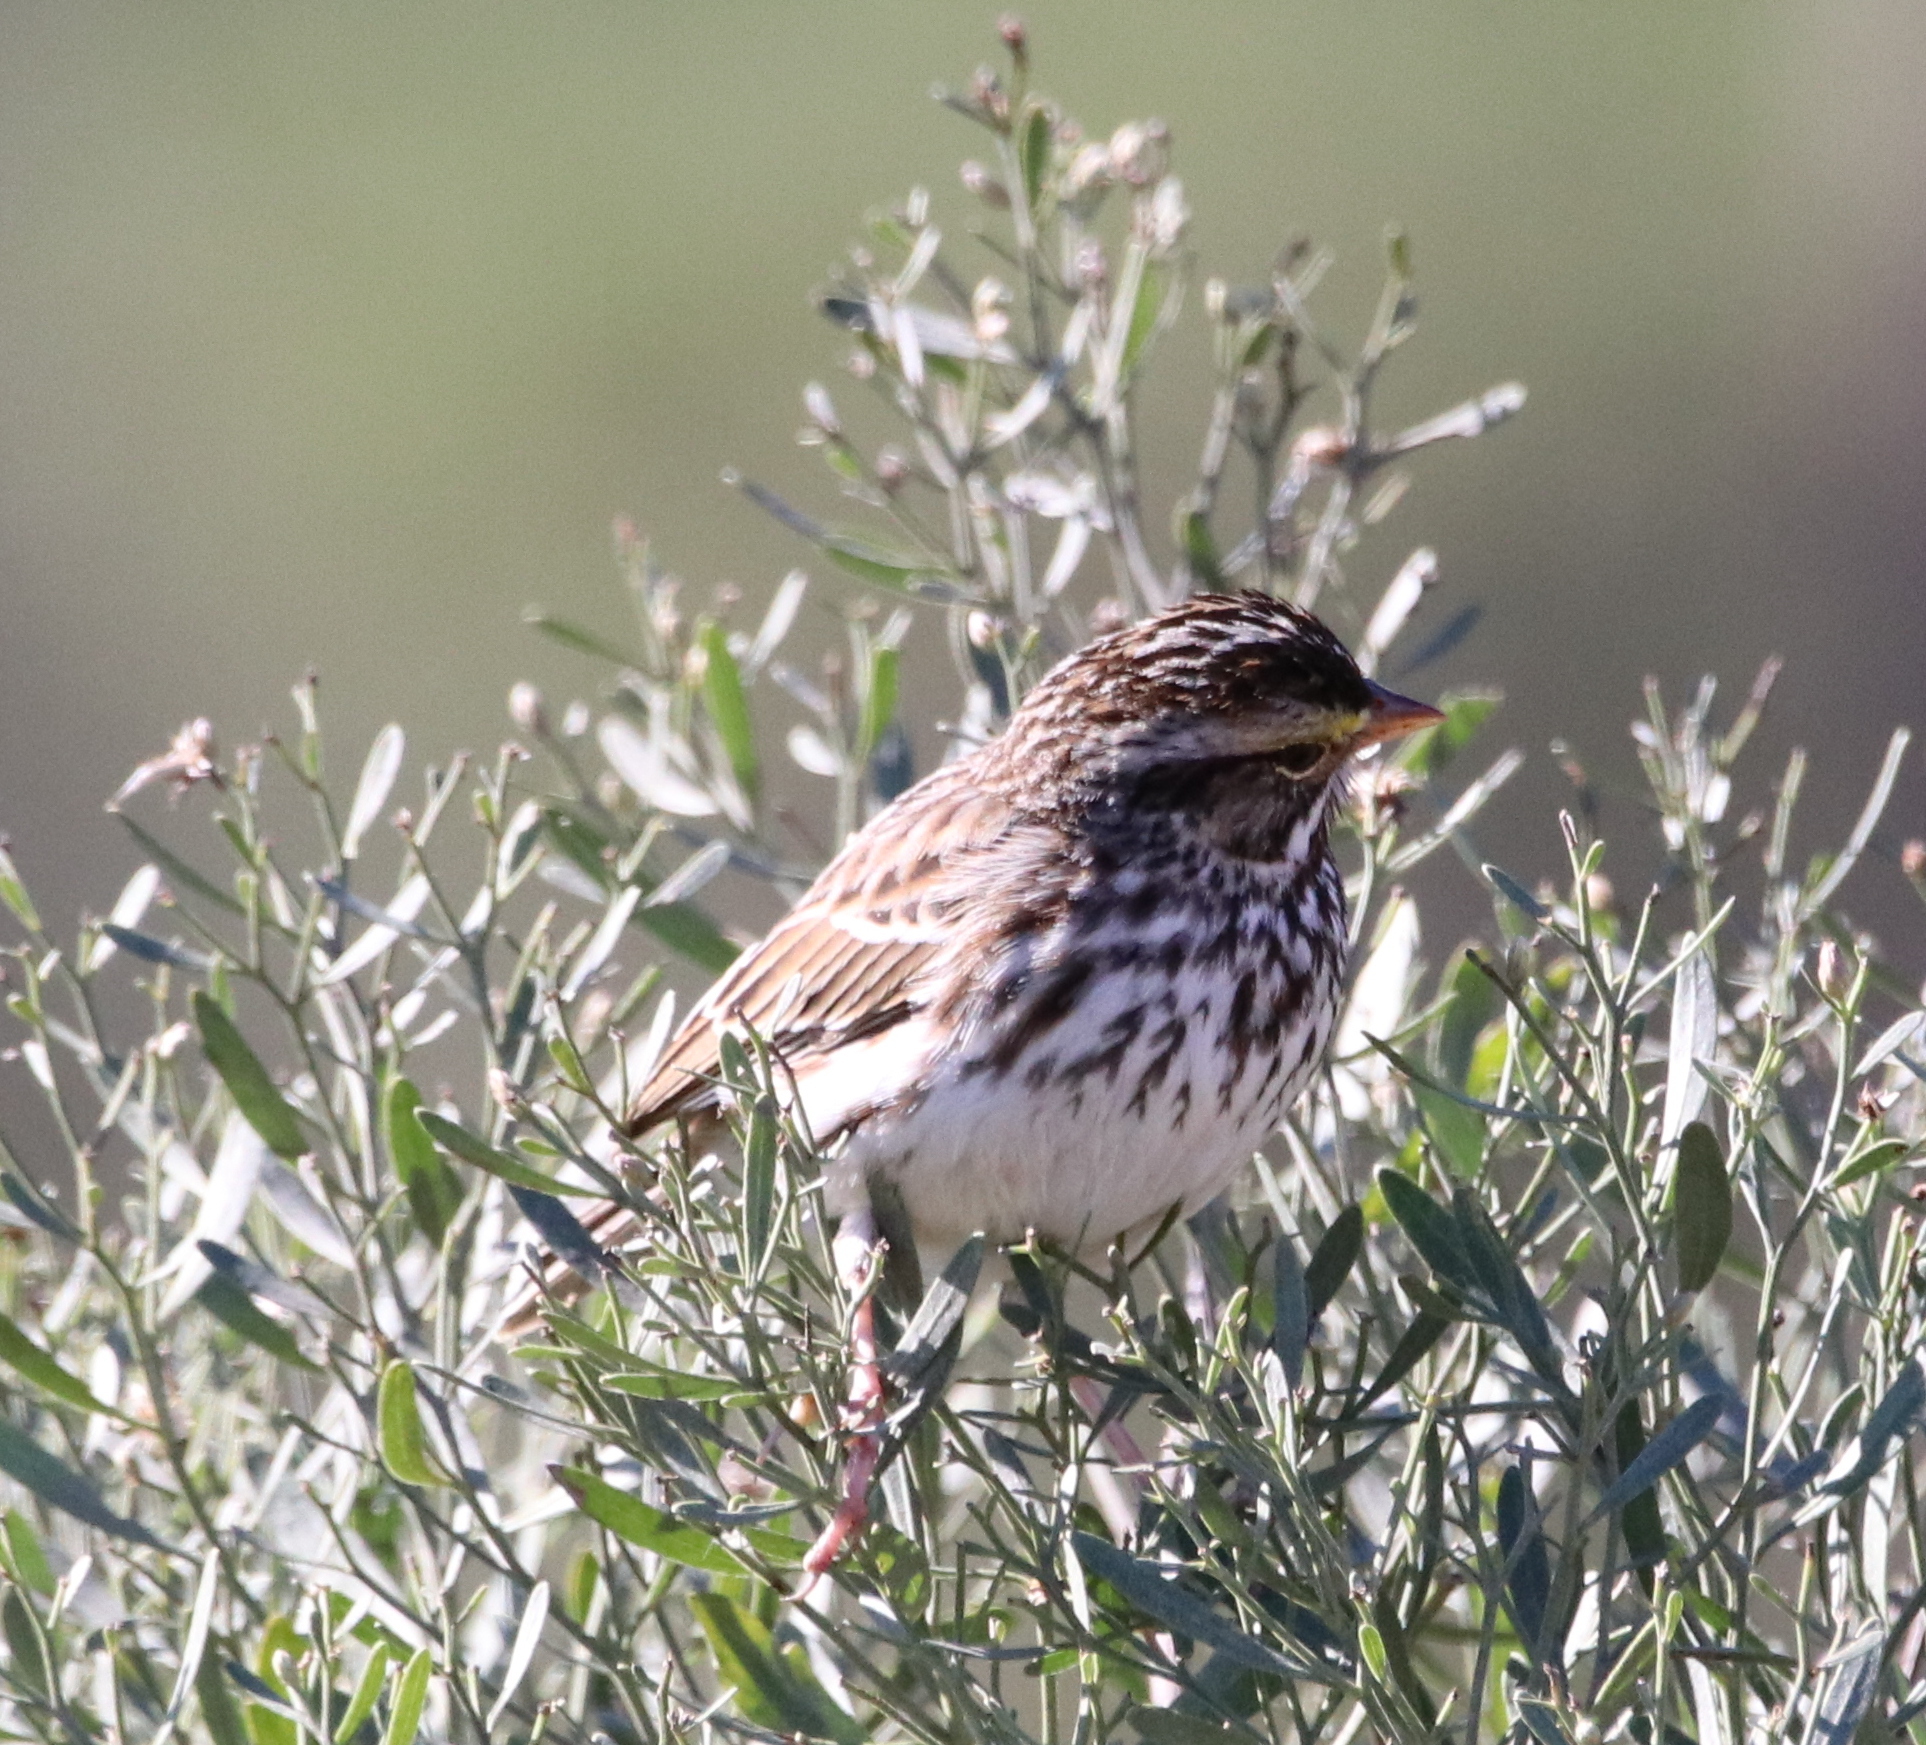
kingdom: Animalia
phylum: Chordata
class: Aves
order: Passeriformes
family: Passerellidae
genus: Passerculus
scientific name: Passerculus sandwichensis
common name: Savannah sparrow
